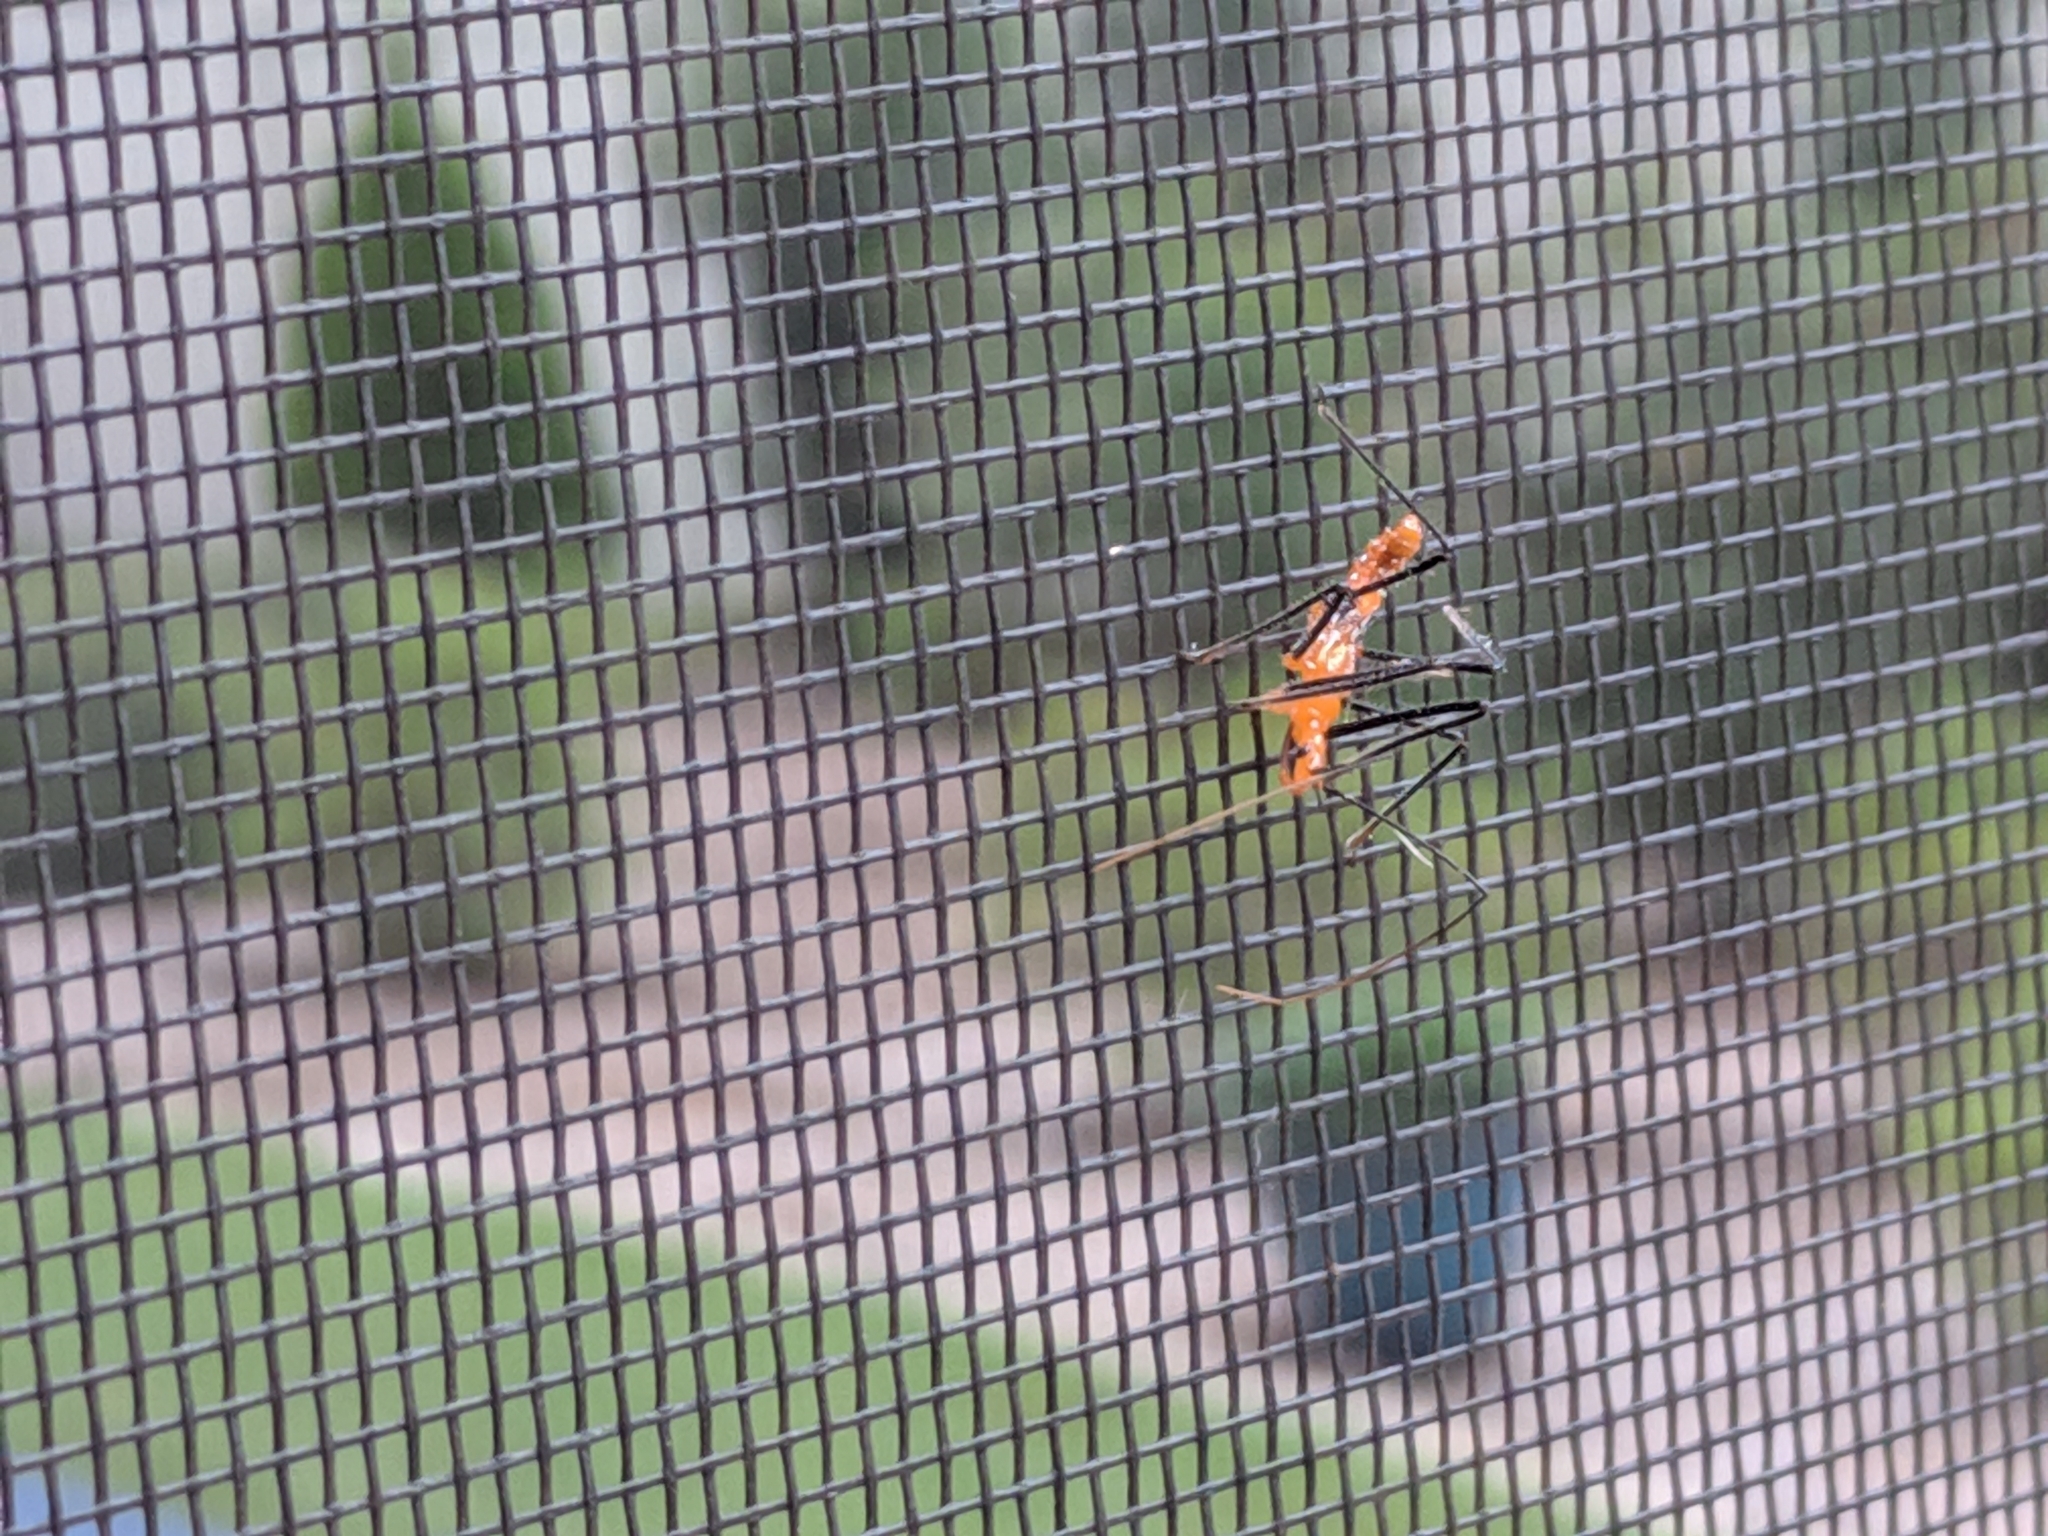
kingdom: Animalia
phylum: Arthropoda
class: Insecta
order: Hemiptera
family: Reduviidae
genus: Zelus
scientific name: Zelus longipes
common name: Milkweed assassin bug
